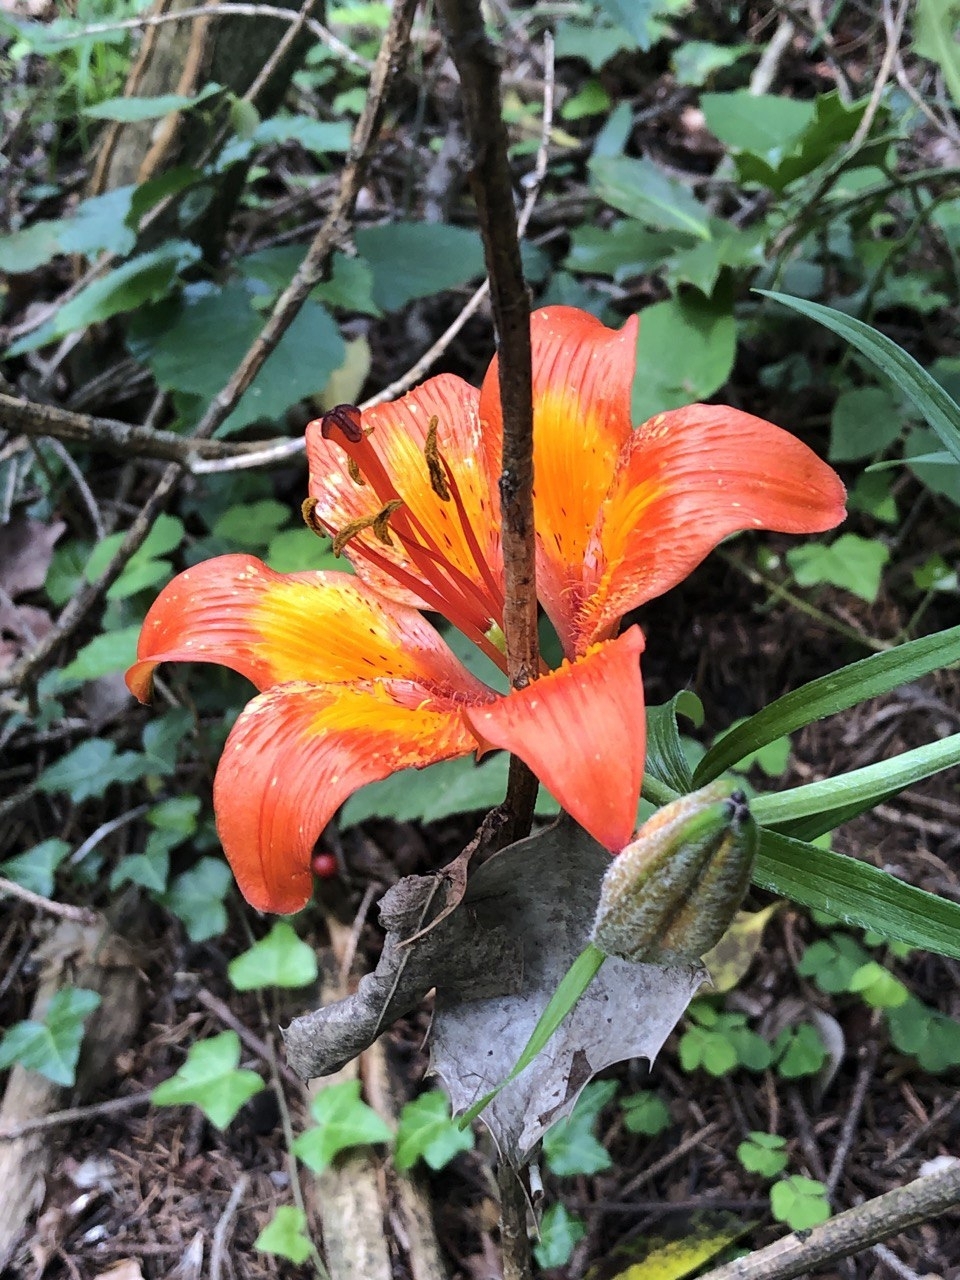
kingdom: Plantae
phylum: Tracheophyta
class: Liliopsida
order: Liliales
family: Liliaceae
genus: Lilium
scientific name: Lilium bulbiferum
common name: Orange lily
